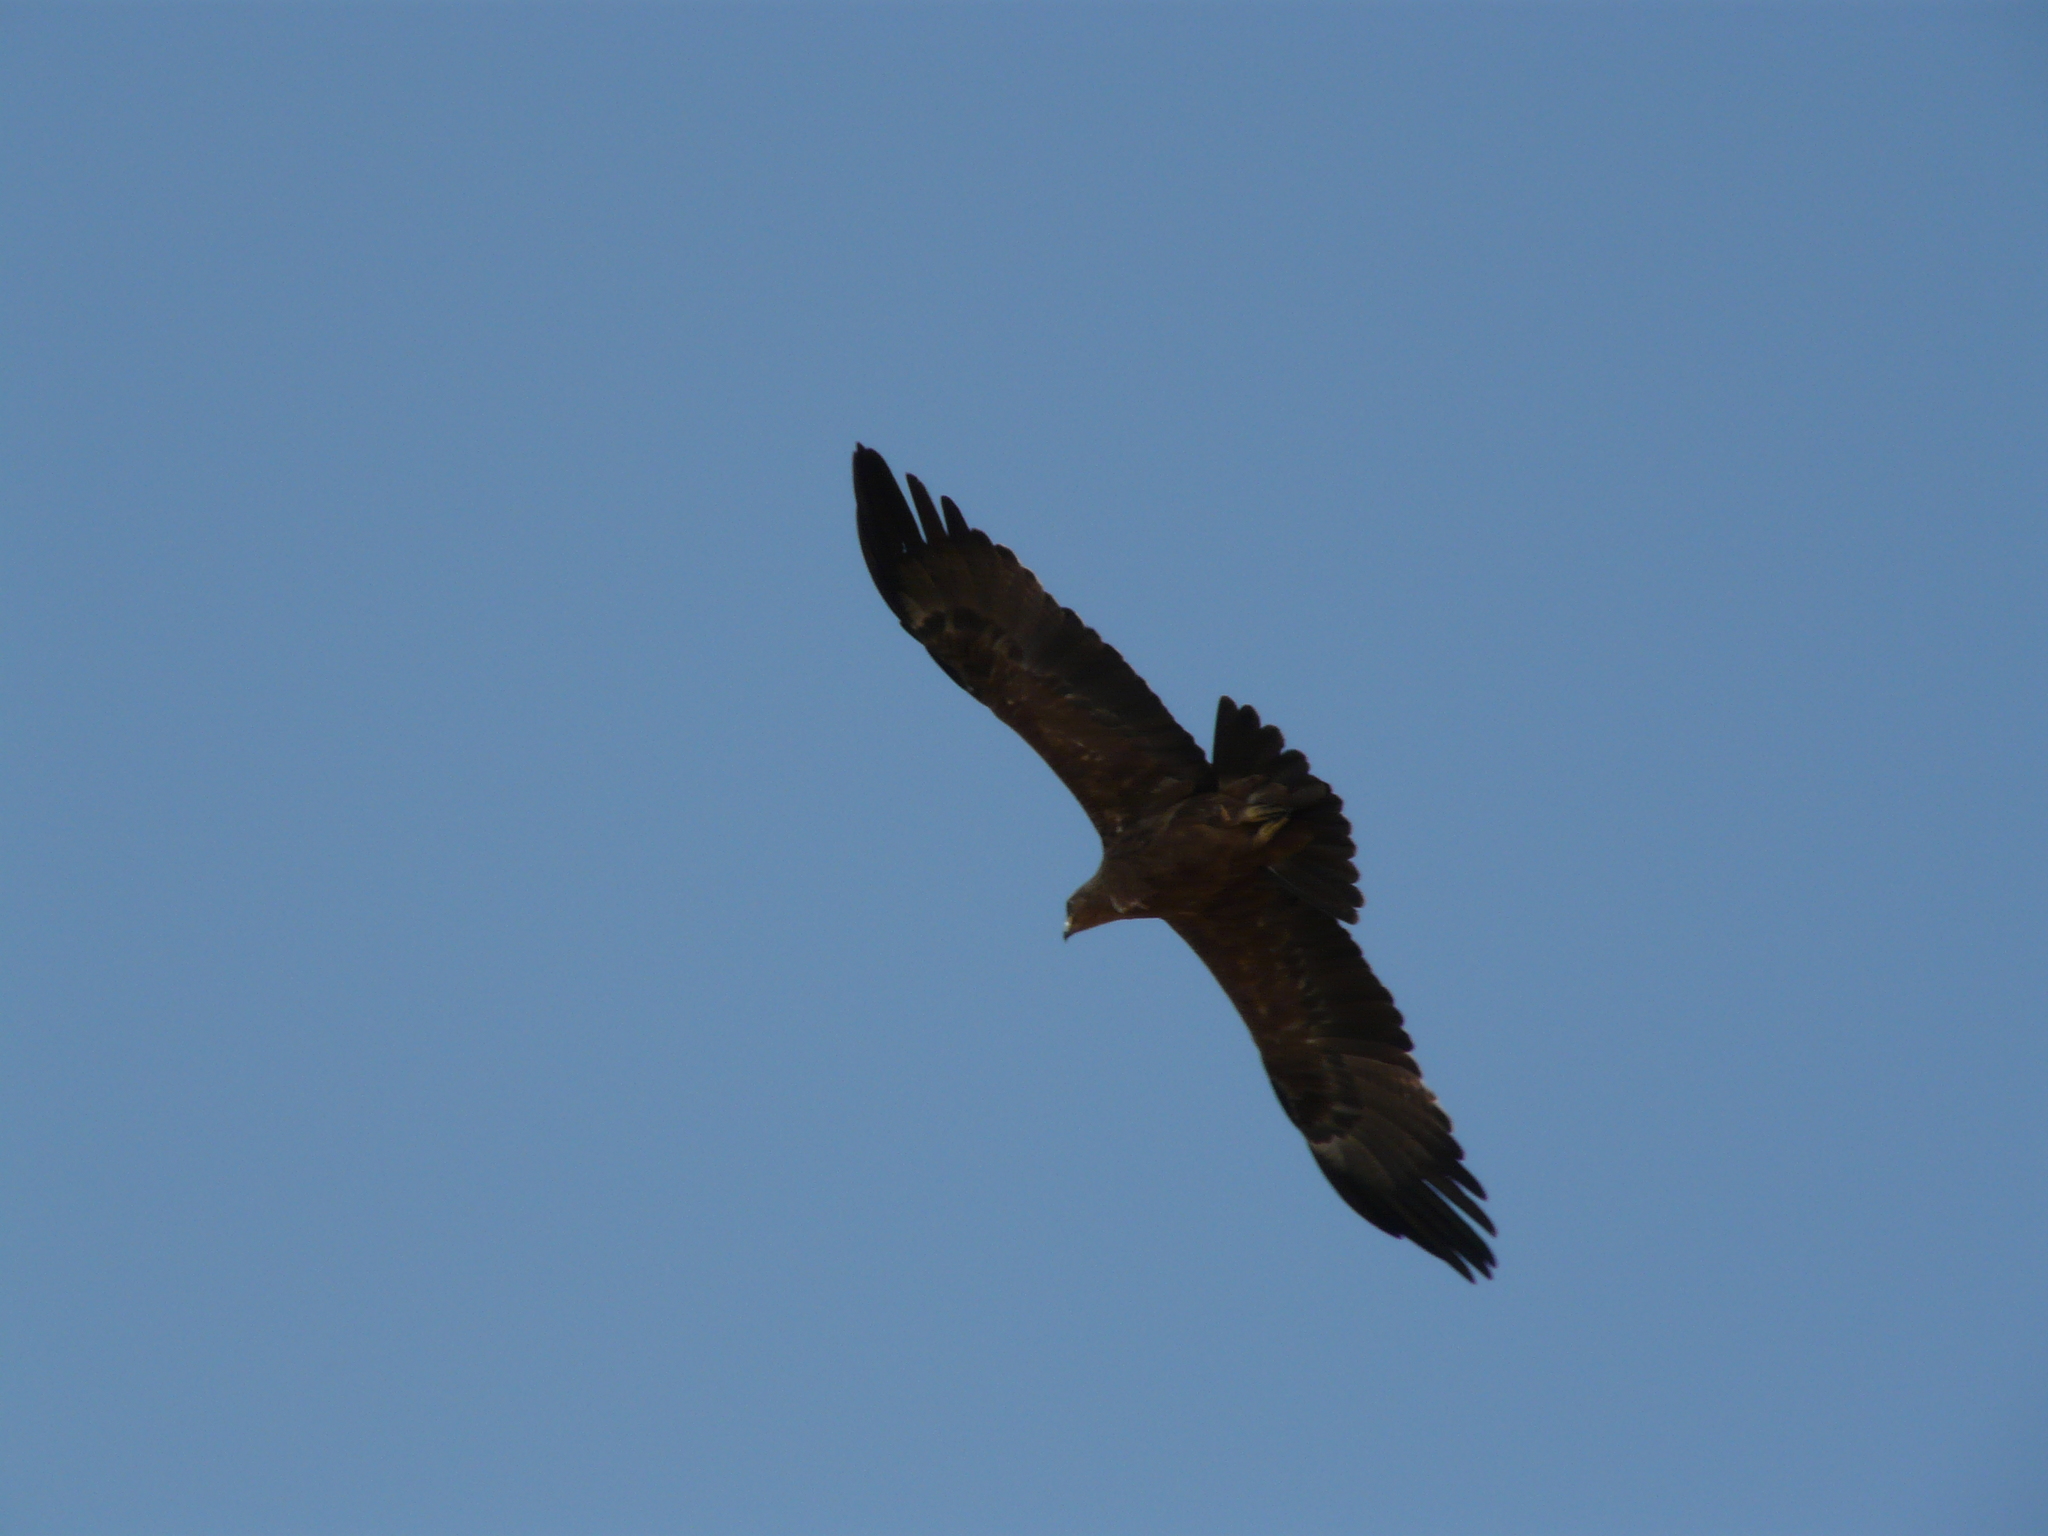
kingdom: Animalia
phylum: Chordata
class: Aves
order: Accipitriformes
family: Accipitridae
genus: Aquila
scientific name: Aquila rapax
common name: Tawny eagle
